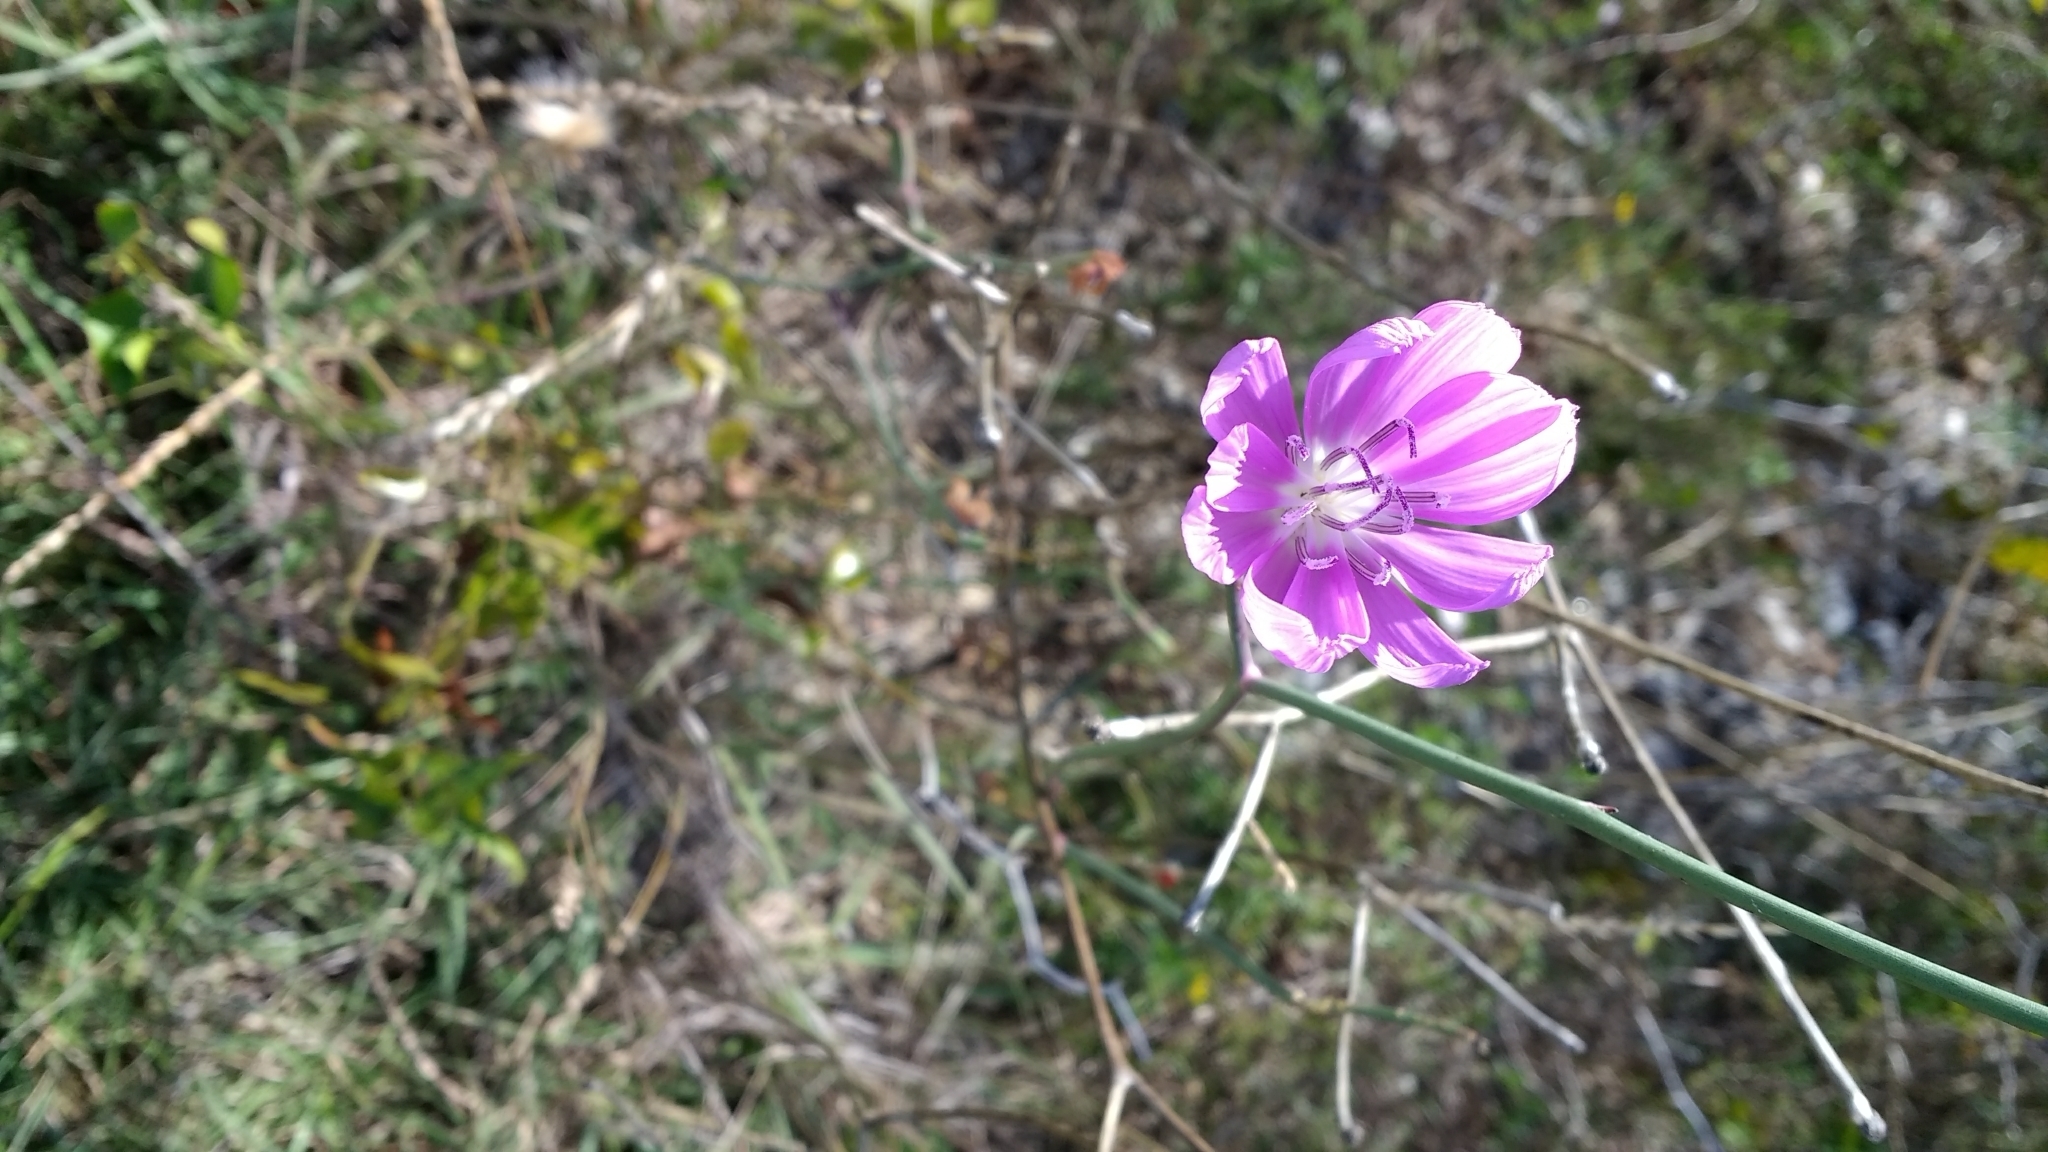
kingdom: Plantae
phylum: Tracheophyta
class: Magnoliopsida
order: Asterales
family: Asteraceae
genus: Lygodesmia
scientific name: Lygodesmia texana
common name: Texas skeleton-plant
